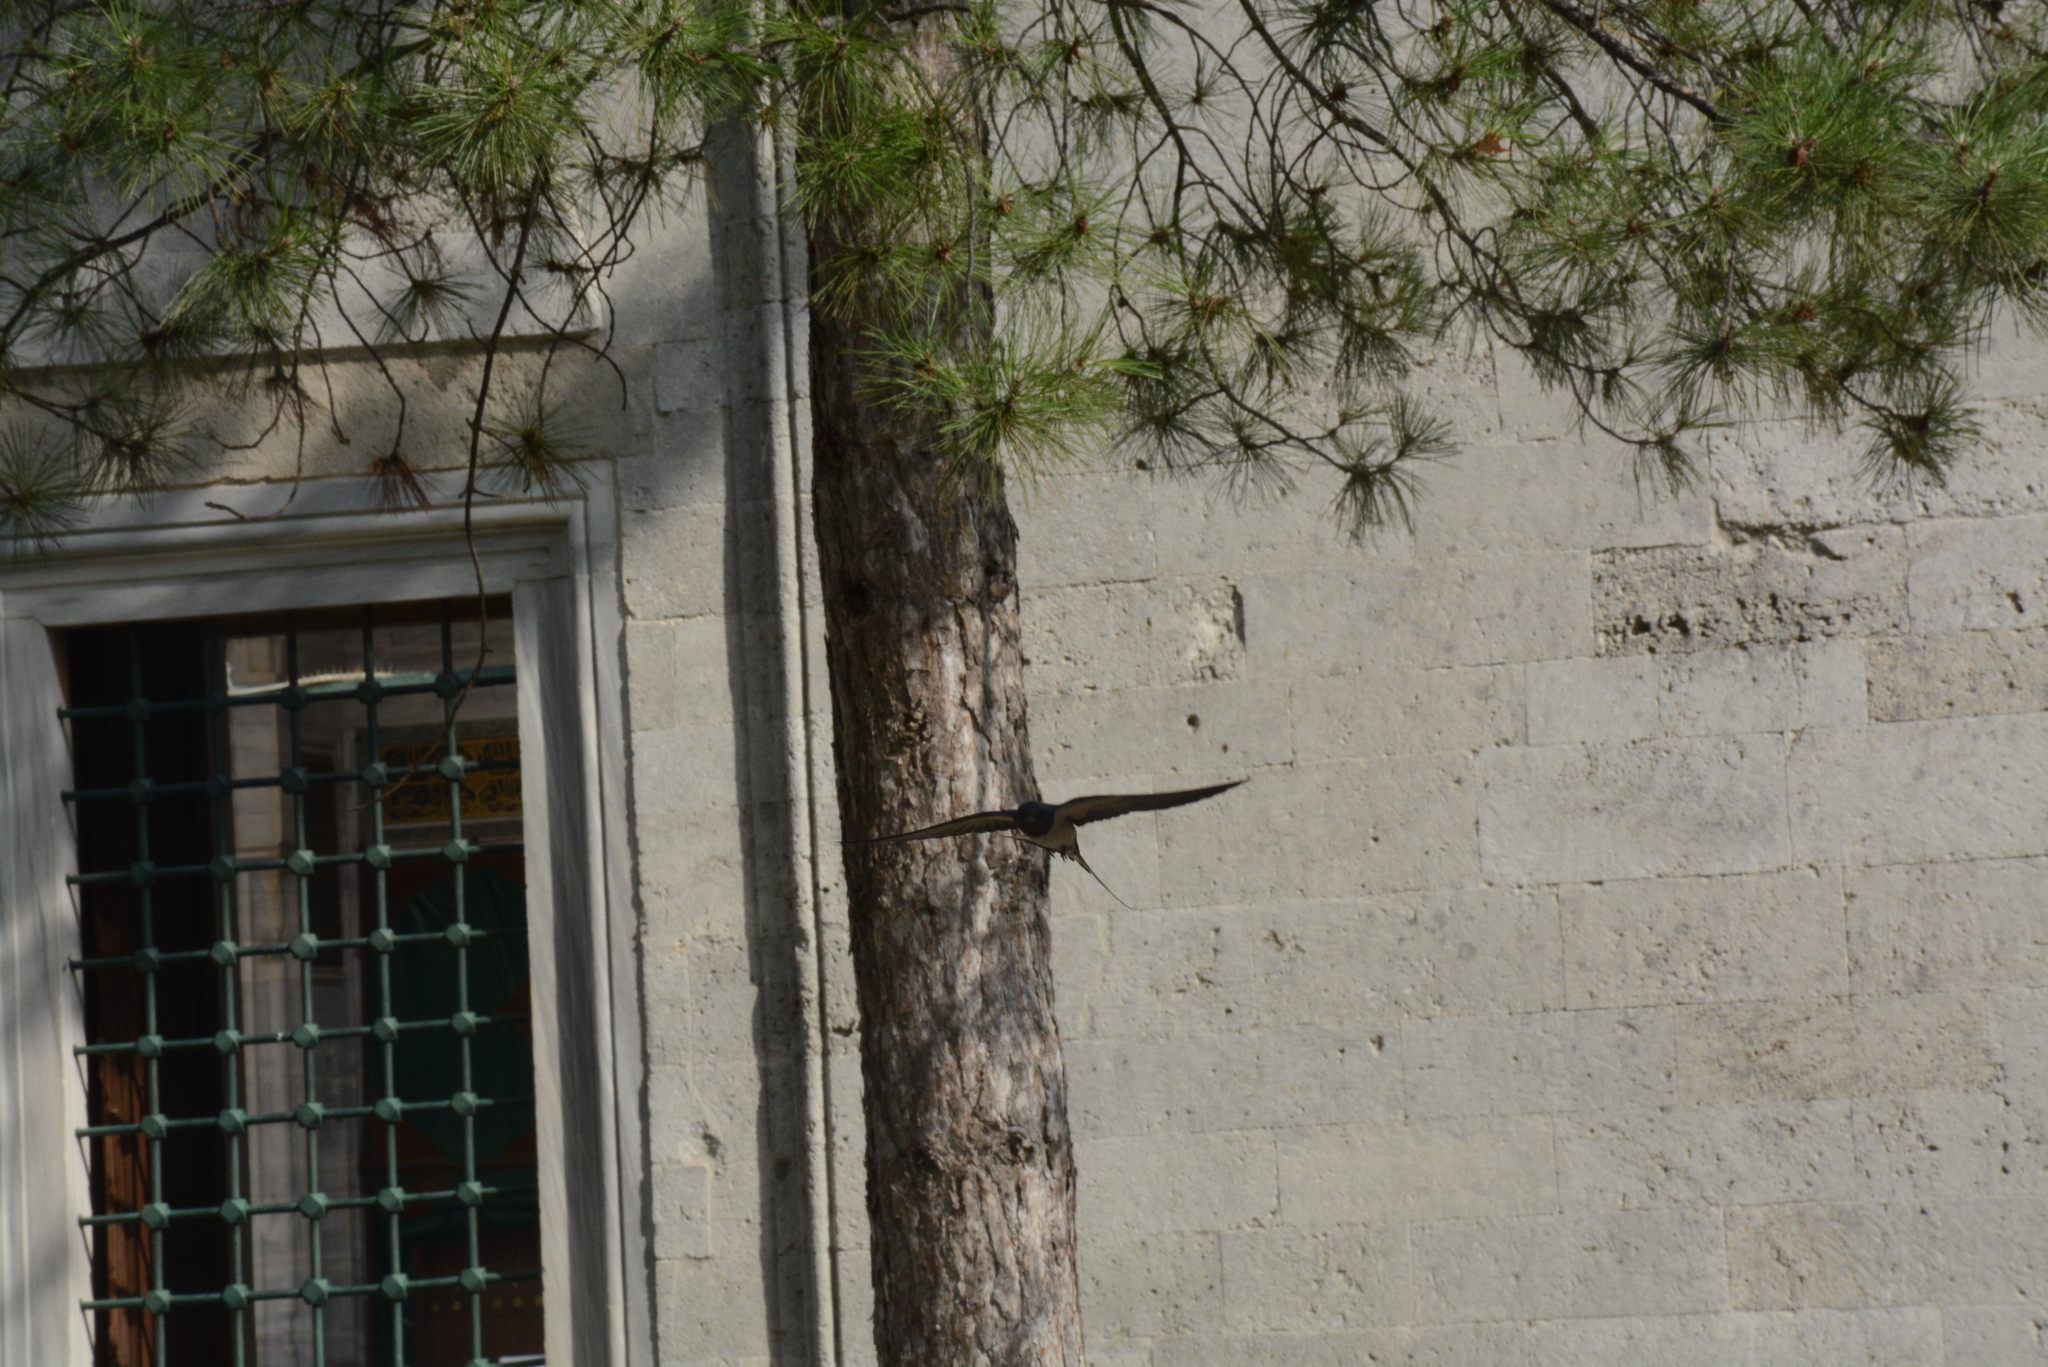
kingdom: Animalia
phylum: Chordata
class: Aves
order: Passeriformes
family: Hirundinidae
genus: Hirundo
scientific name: Hirundo rustica
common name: Barn swallow
